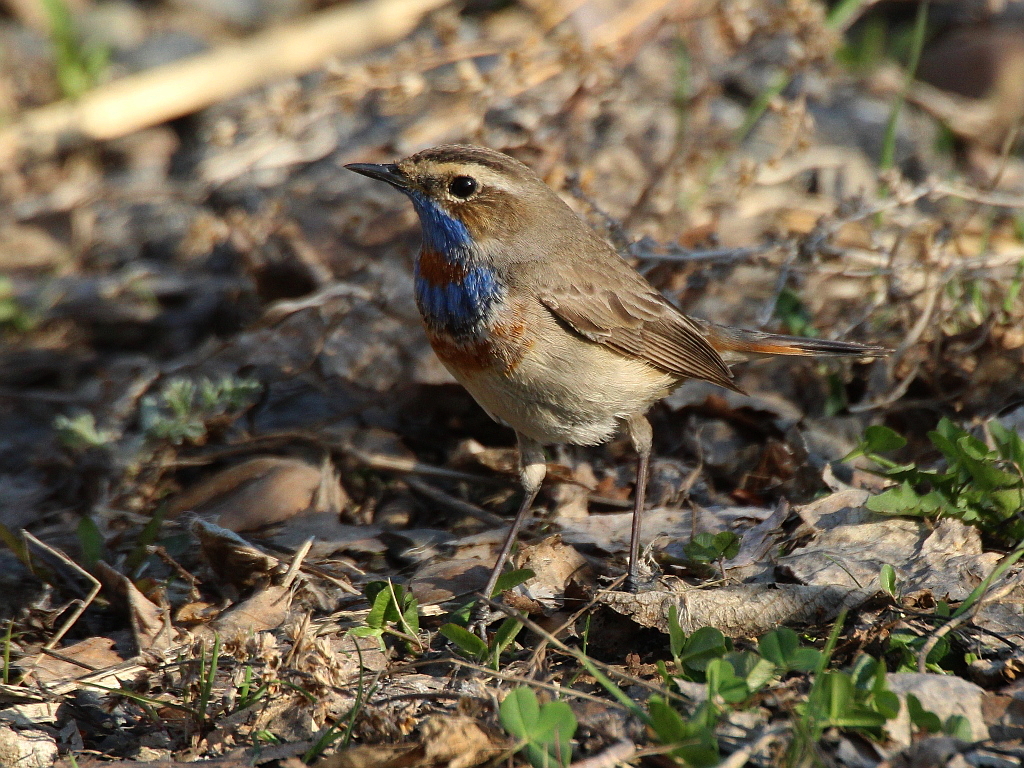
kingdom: Animalia
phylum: Chordata
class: Aves
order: Passeriformes
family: Muscicapidae
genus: Luscinia
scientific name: Luscinia svecica
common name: Bluethroat
